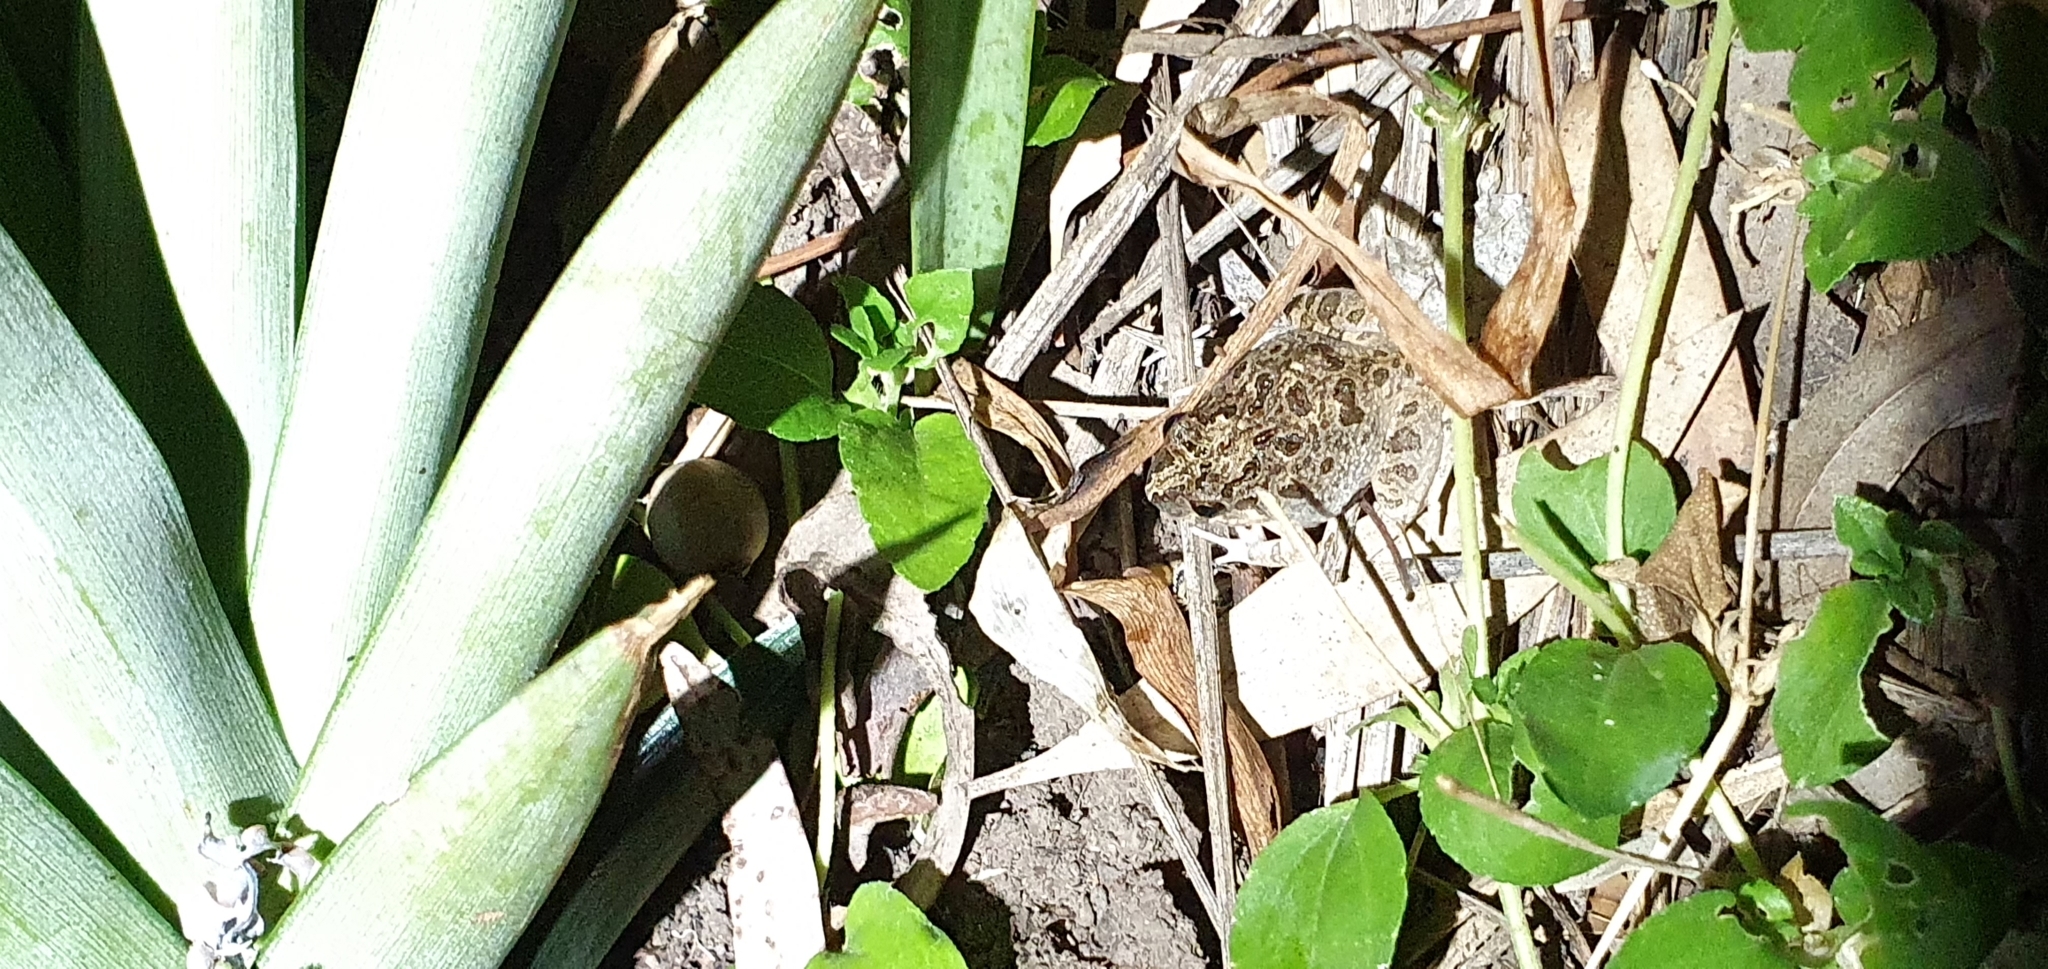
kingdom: Animalia
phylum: Chordata
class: Amphibia
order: Anura
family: Limnodynastidae
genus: Platyplectrum
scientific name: Platyplectrum ornatum
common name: Ornate burrowing frog
